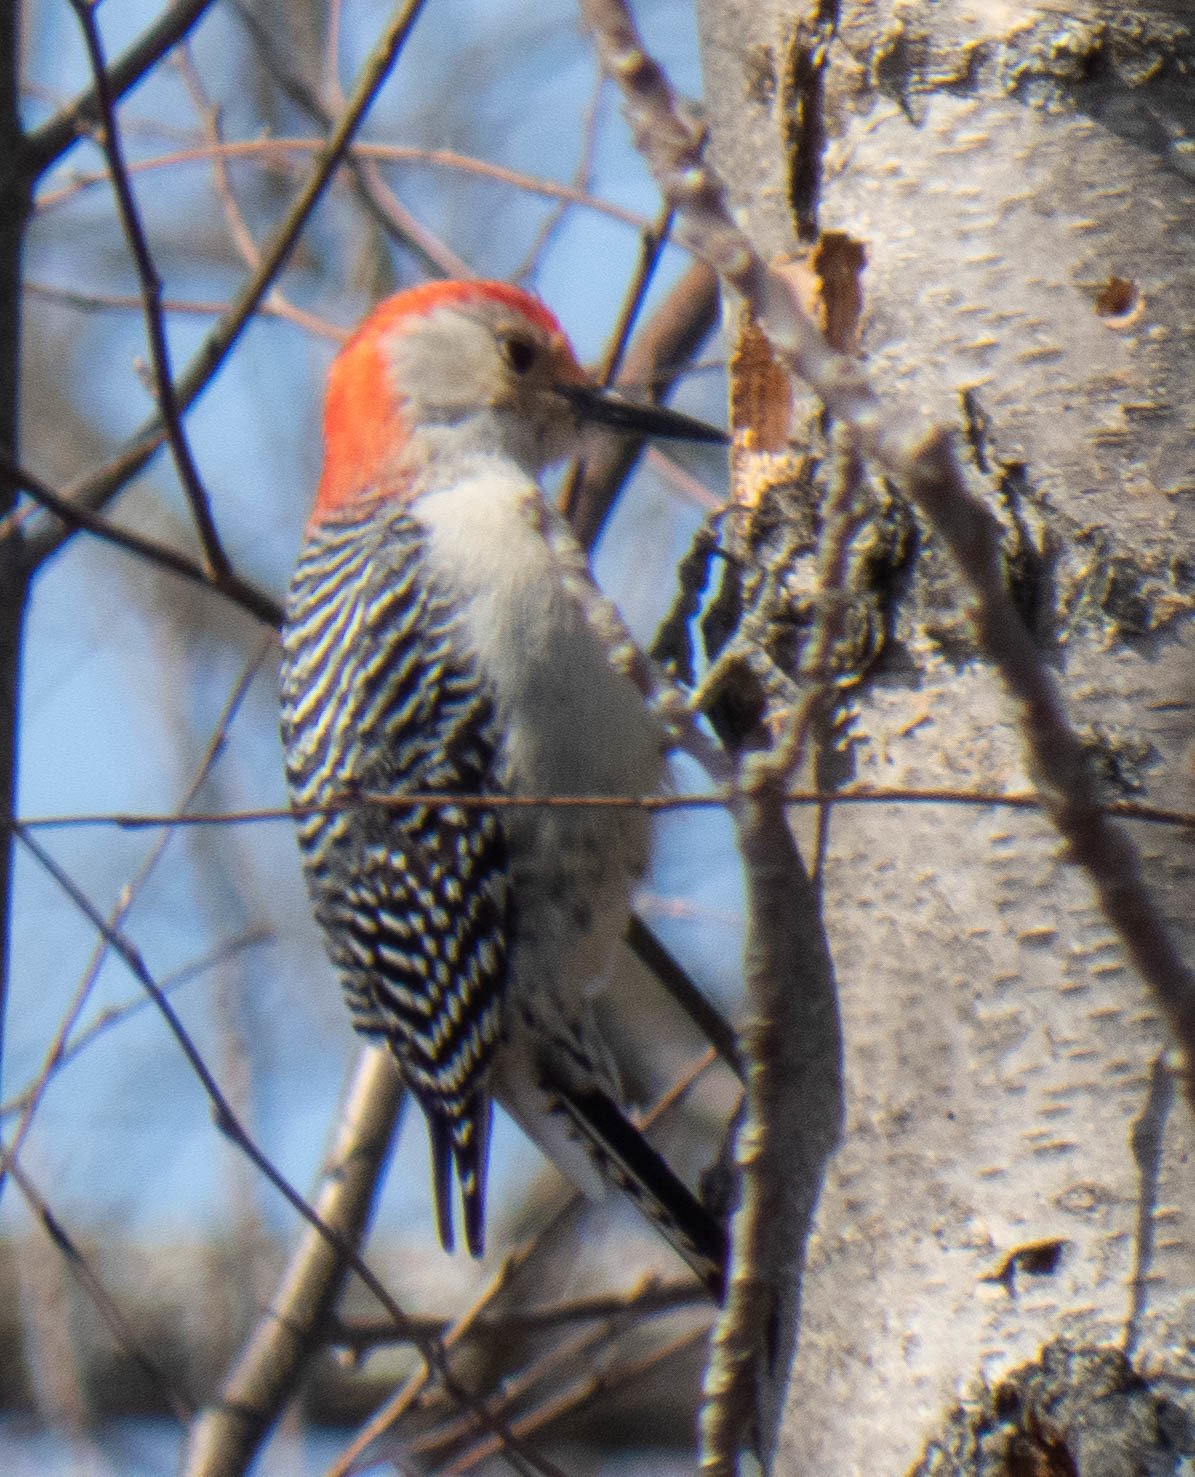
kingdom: Animalia
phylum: Chordata
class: Aves
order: Piciformes
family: Picidae
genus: Melanerpes
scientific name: Melanerpes carolinus
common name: Red-bellied woodpecker
